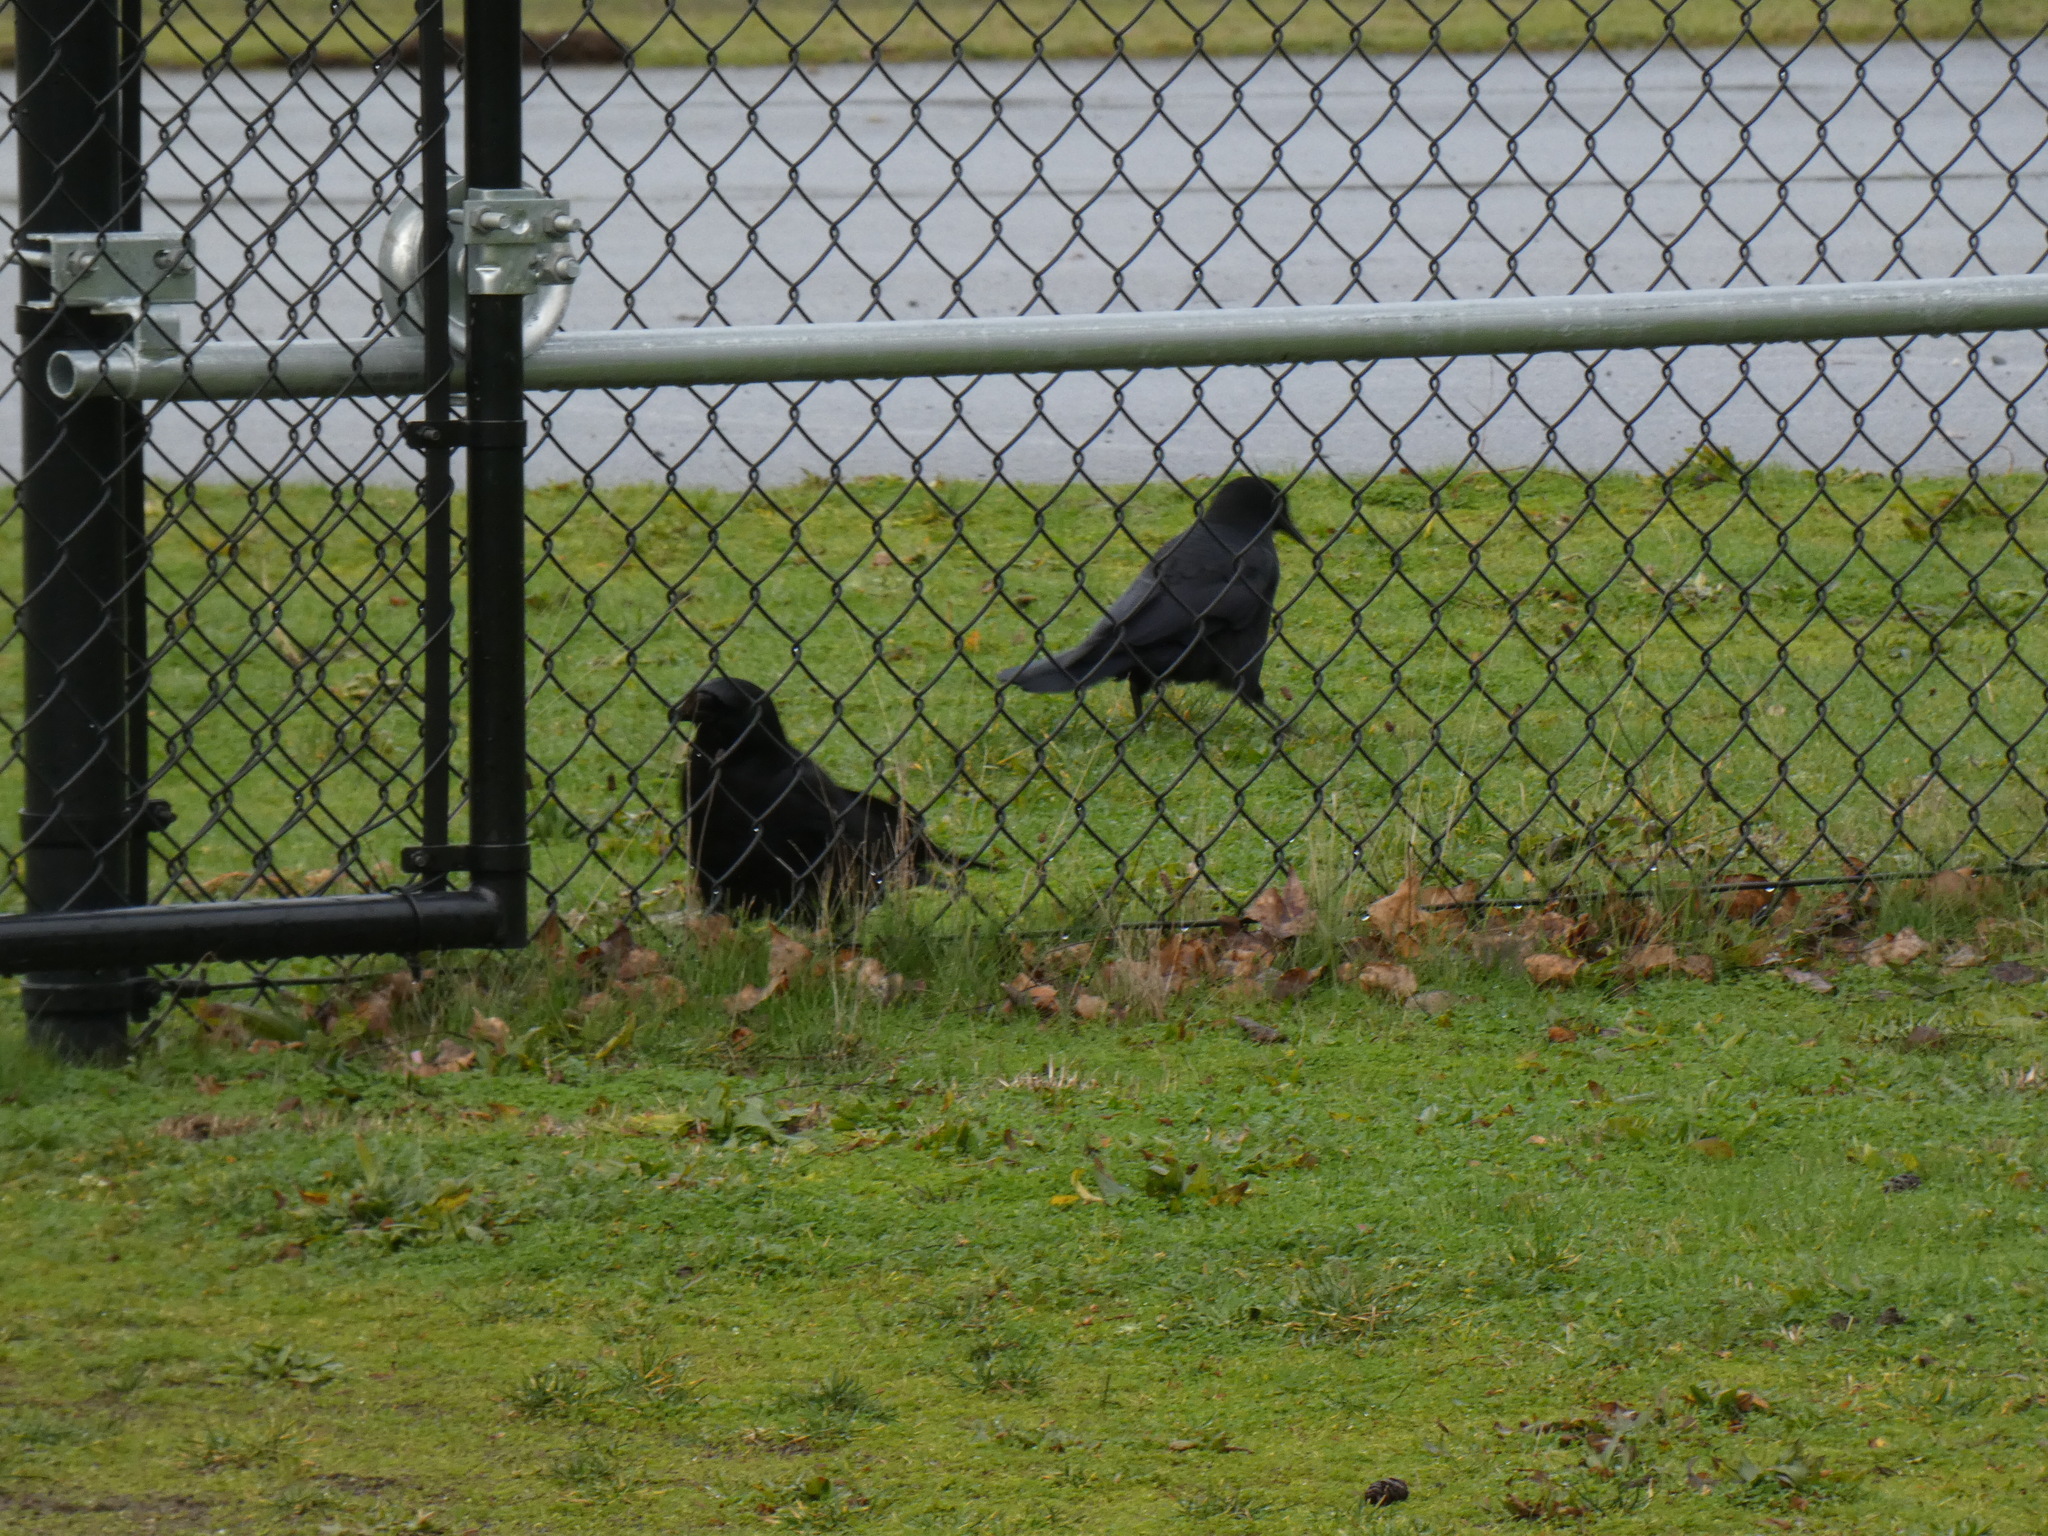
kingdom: Animalia
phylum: Chordata
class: Aves
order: Passeriformes
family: Corvidae
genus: Corvus
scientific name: Corvus brachyrhynchos
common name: American crow
